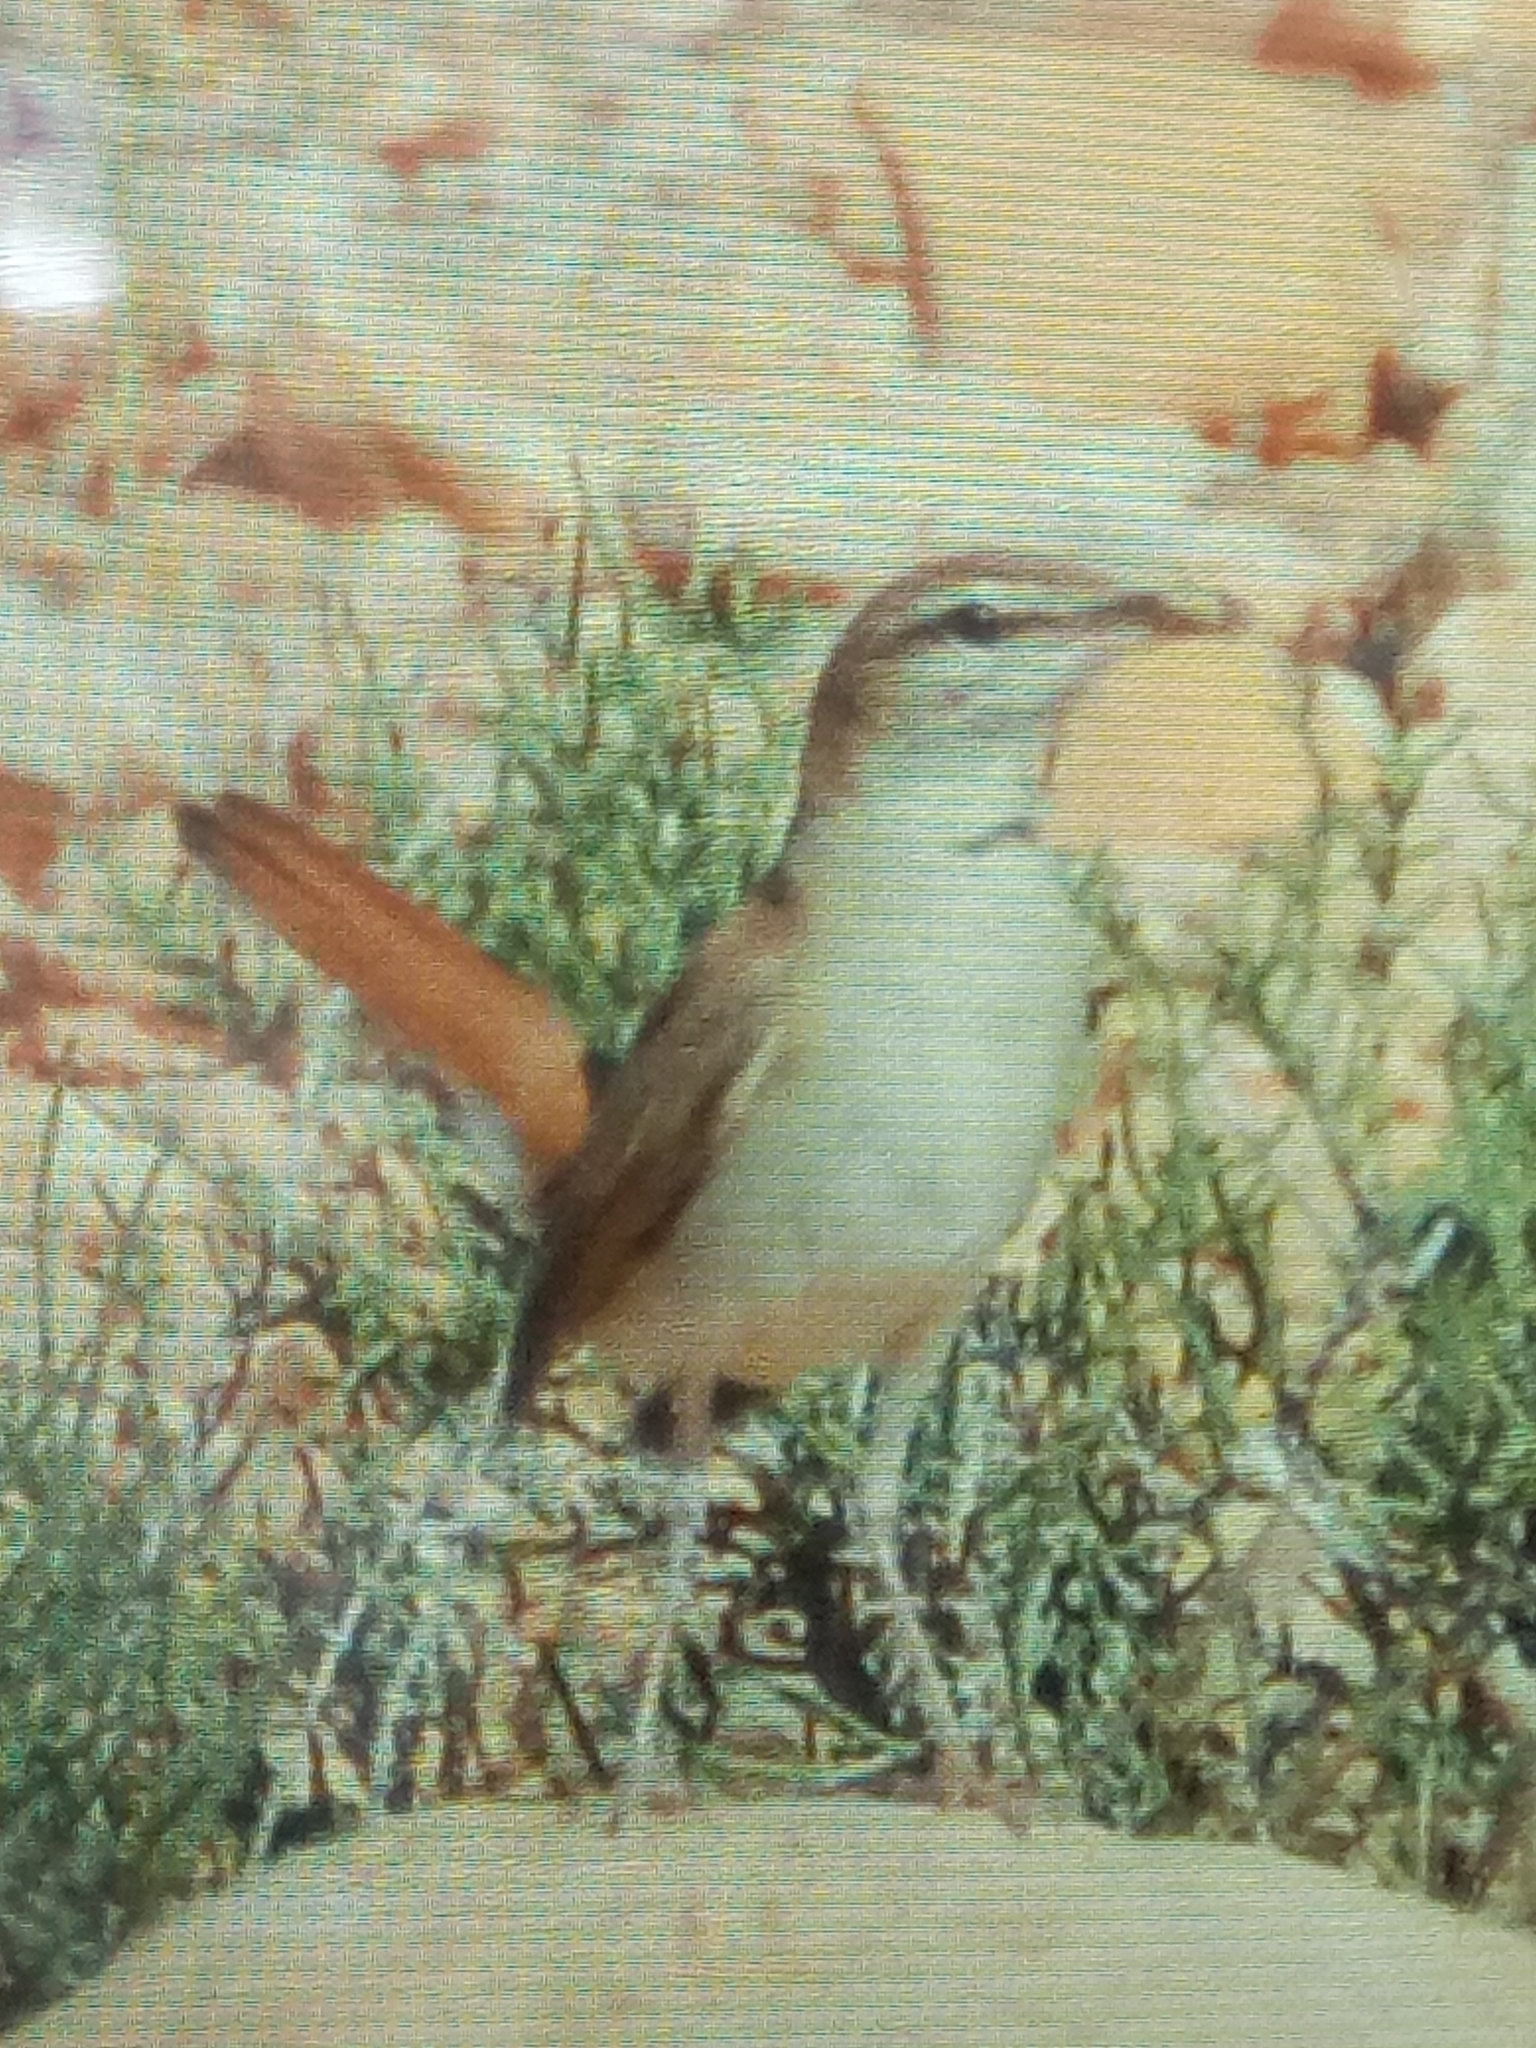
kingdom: Animalia
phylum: Chordata
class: Aves
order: Passeriformes
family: Muscicapidae
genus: Erythropygia
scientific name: Erythropygia galactotes
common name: Rufous-tailed scrub robin
